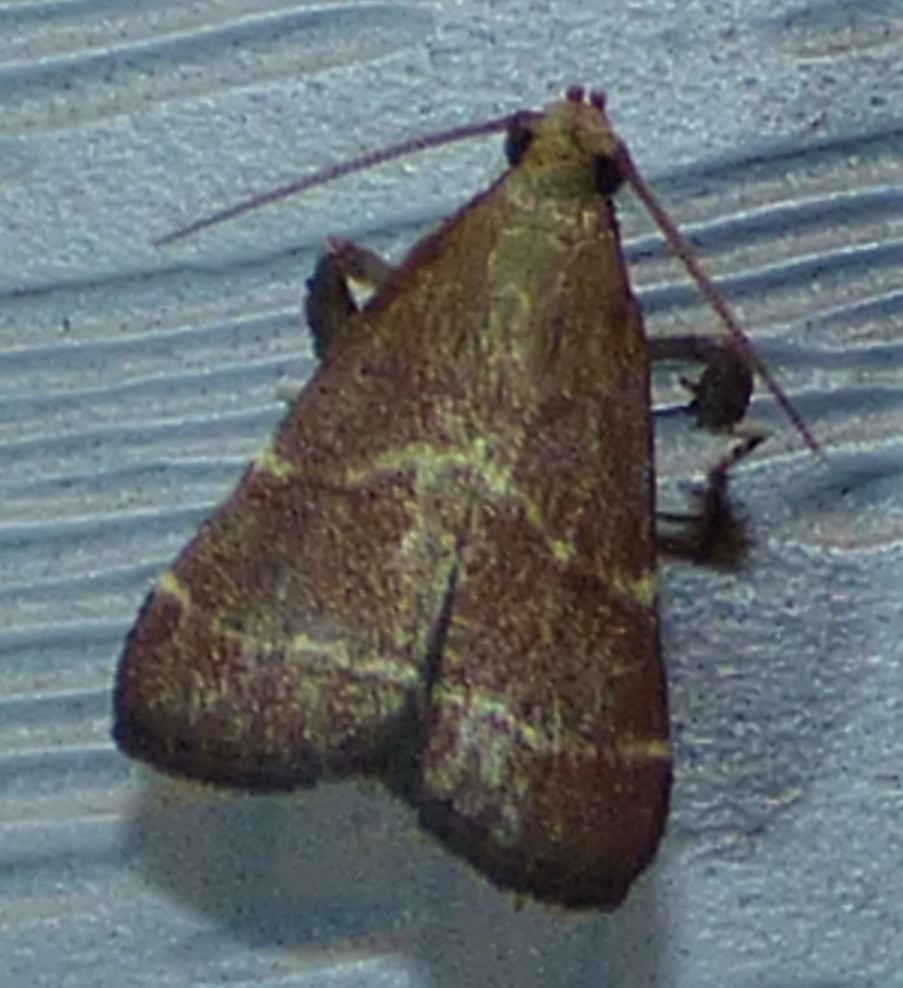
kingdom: Animalia
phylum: Arthropoda
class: Insecta
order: Lepidoptera
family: Pyralidae
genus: Arta
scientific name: Arta statalis
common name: Posturing arta moth
